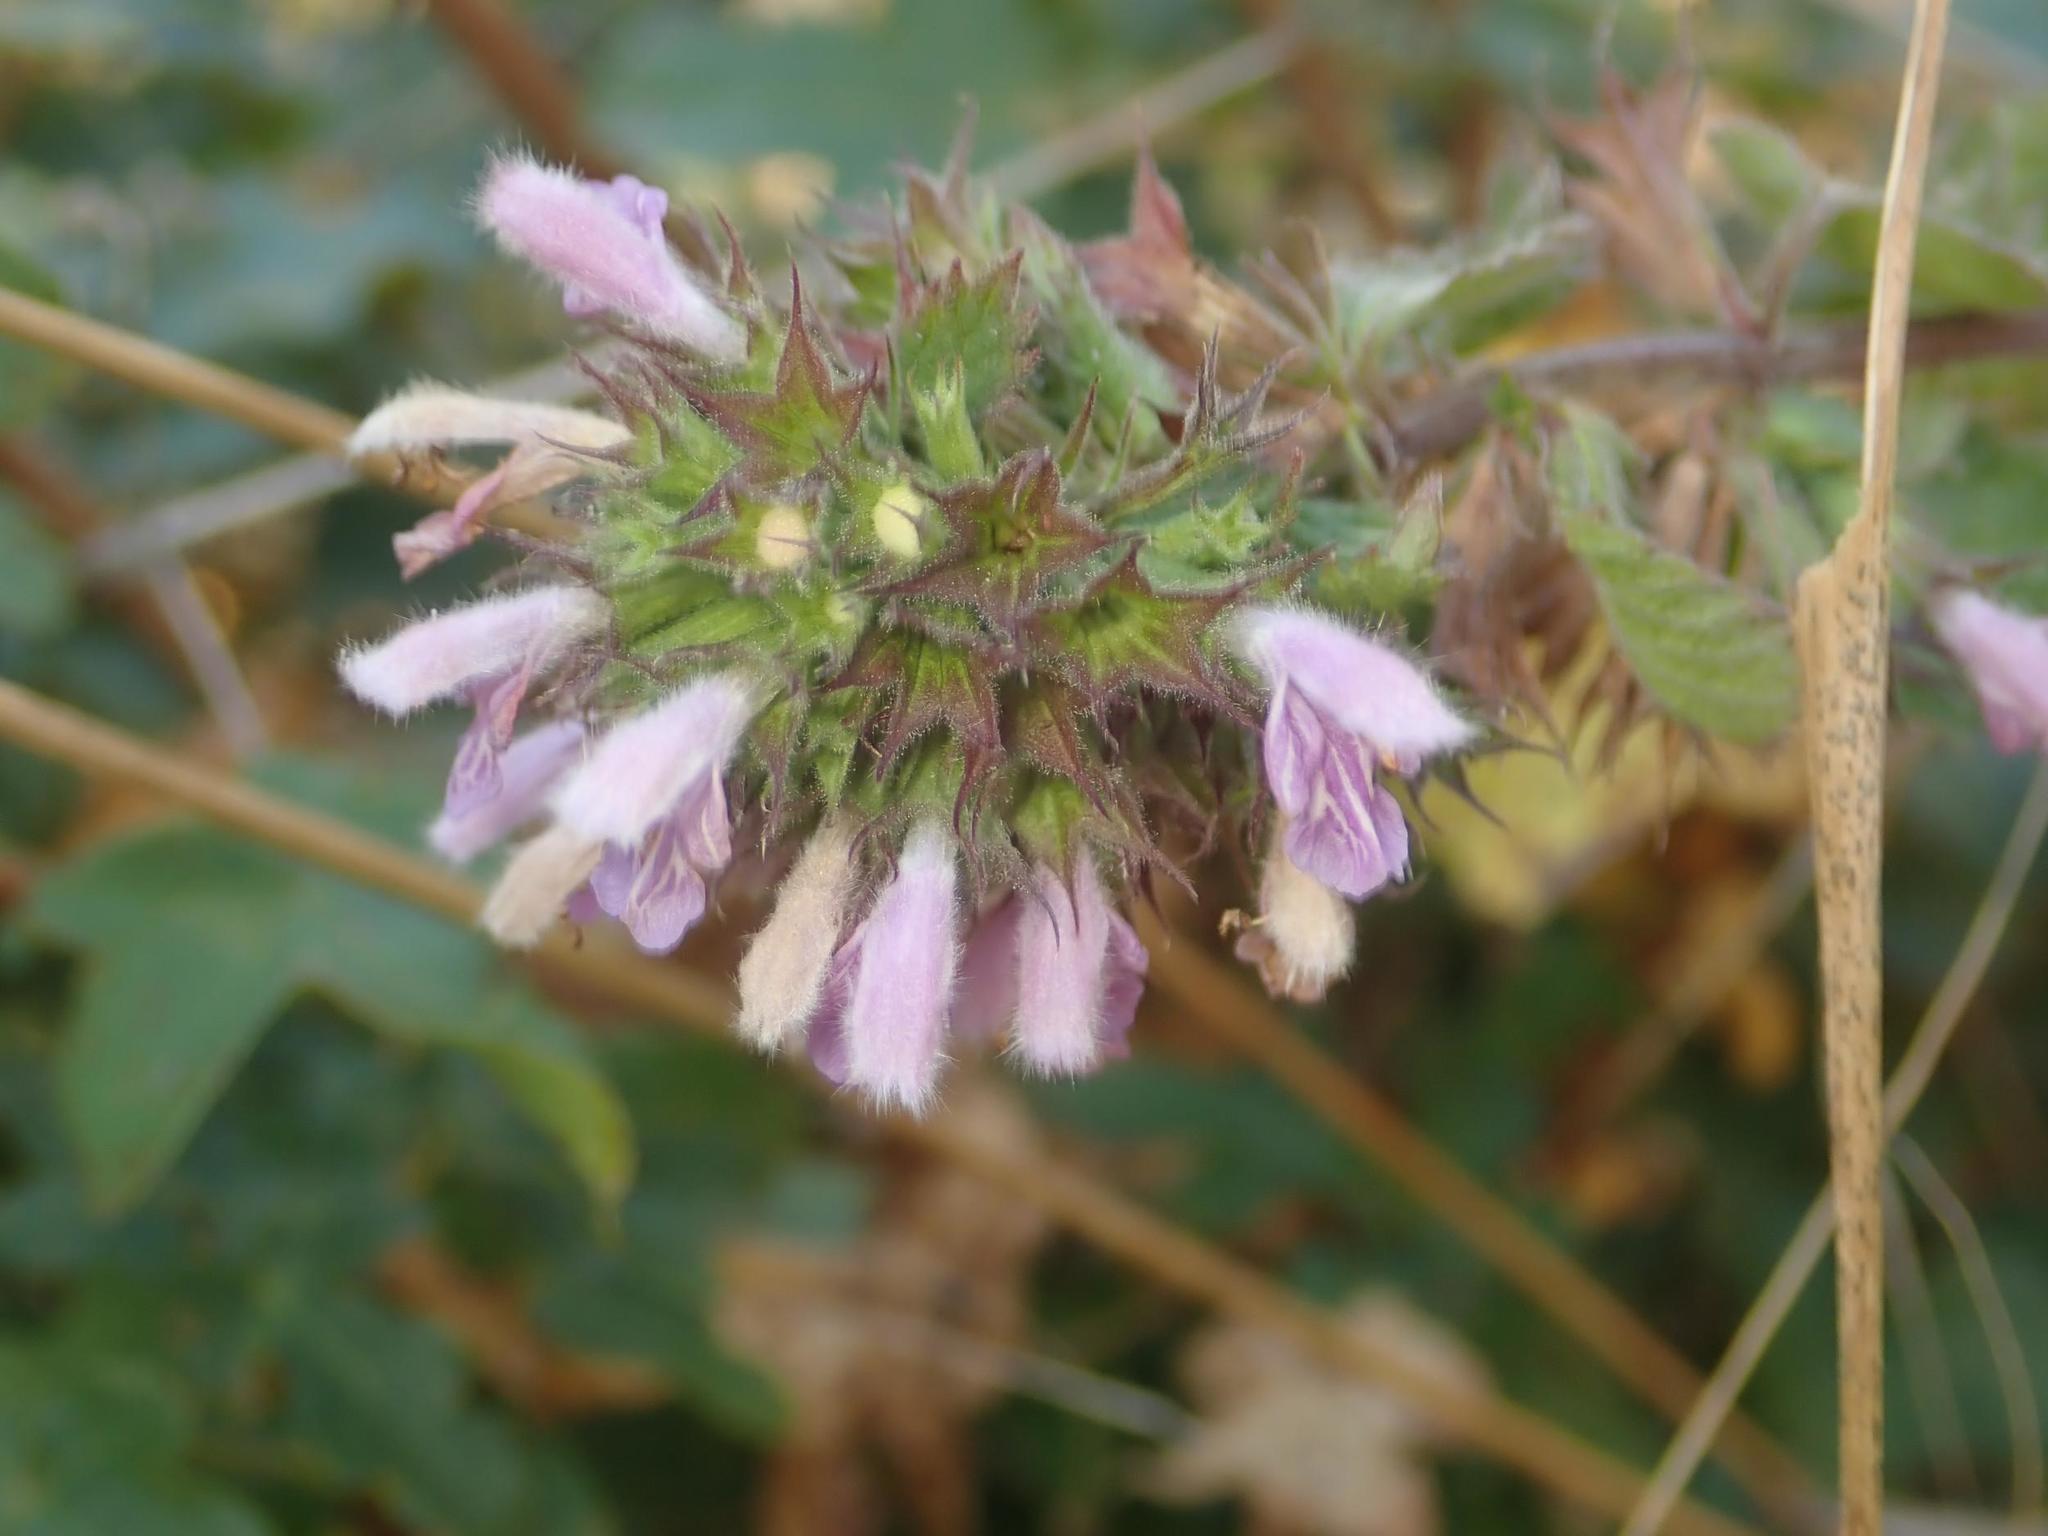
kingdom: Plantae
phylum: Tracheophyta
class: Magnoliopsida
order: Lamiales
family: Lamiaceae
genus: Ballota
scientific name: Ballota nigra
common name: Black horehound
